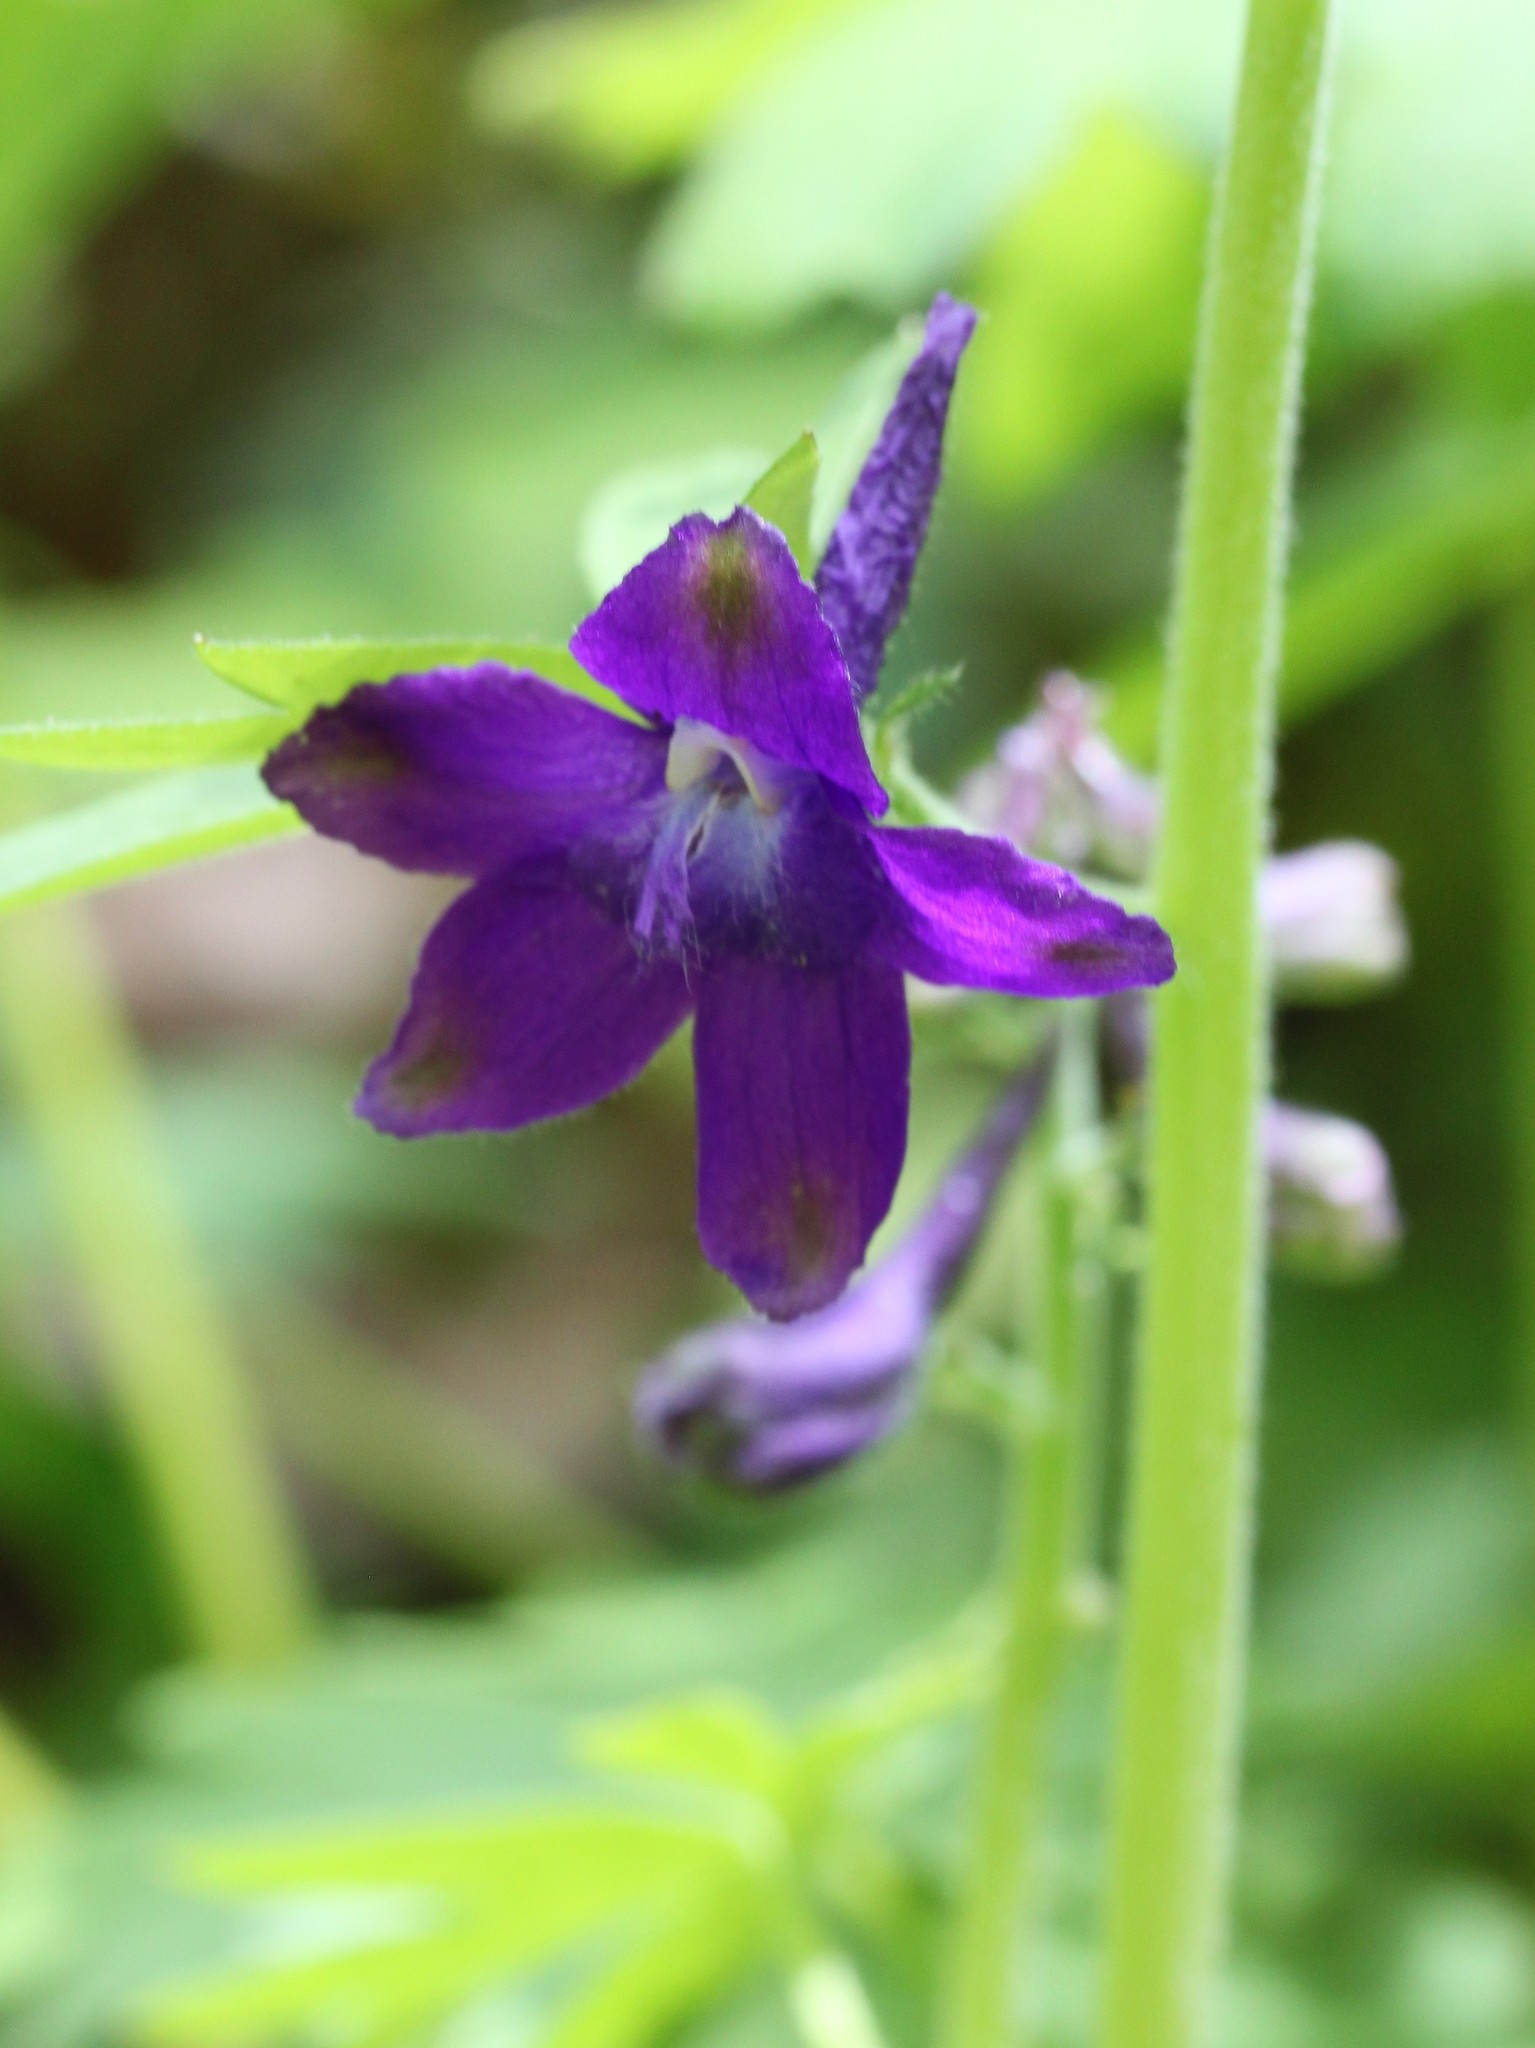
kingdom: Plantae
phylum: Tracheophyta
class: Magnoliopsida
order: Ranunculales
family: Ranunculaceae
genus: Delphinium
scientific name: Delphinium tricorne
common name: Dwarf larkspur
